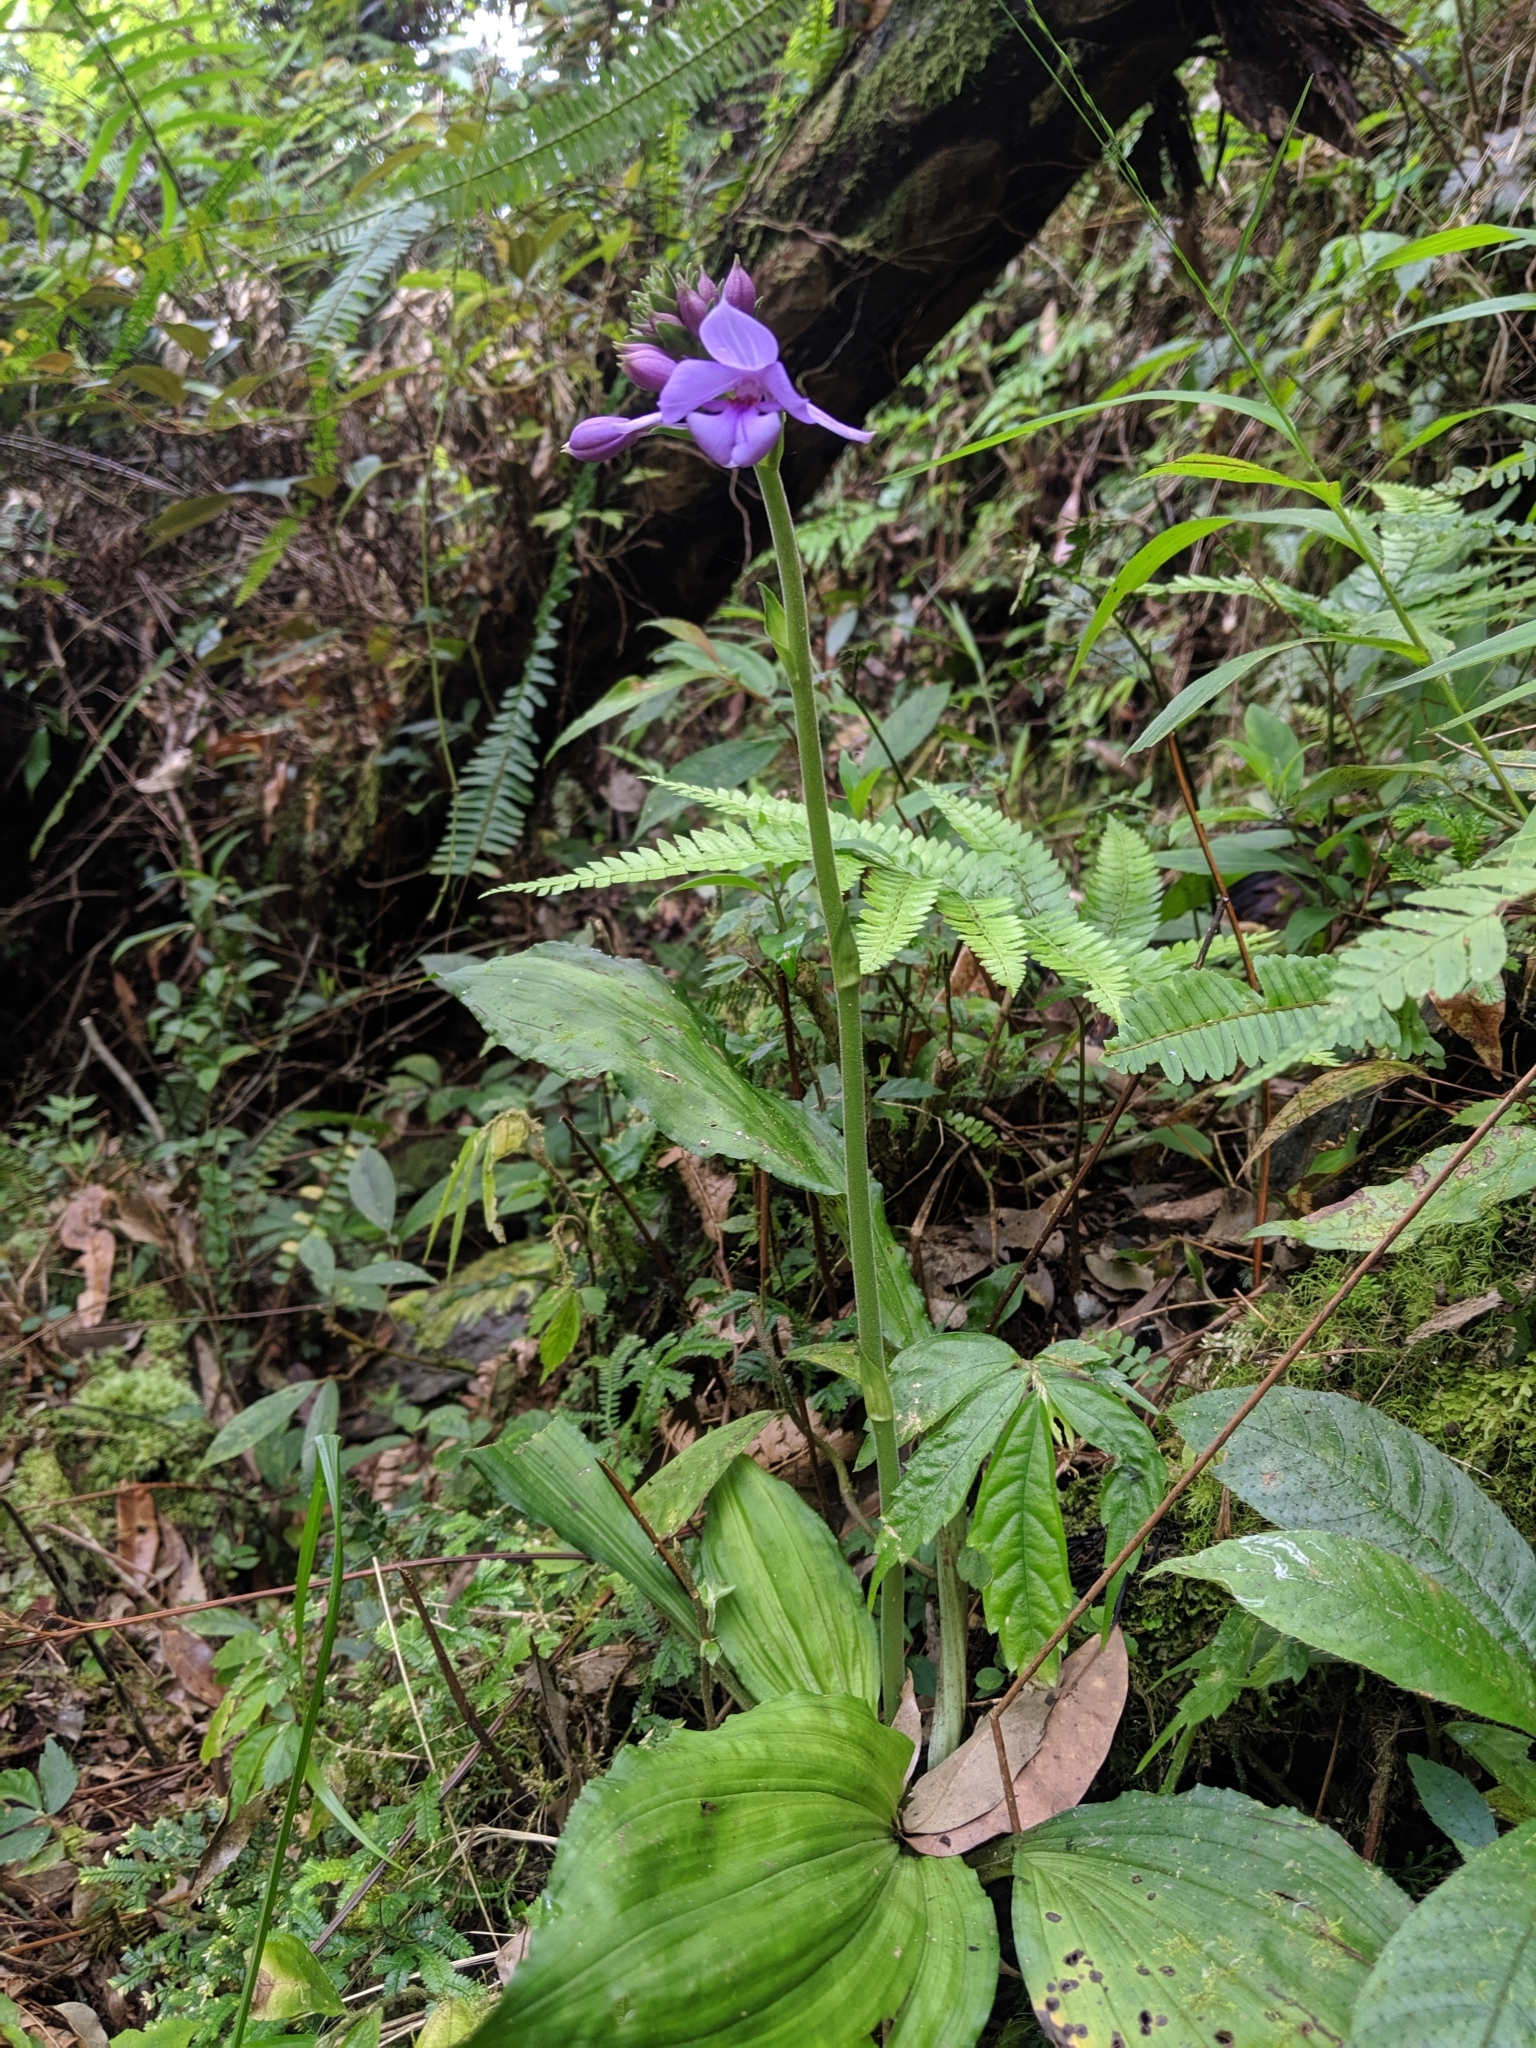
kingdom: Plantae
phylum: Tracheophyta
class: Liliopsida
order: Asparagales
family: Orchidaceae
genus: Calanthe
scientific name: Calanthe masuca
